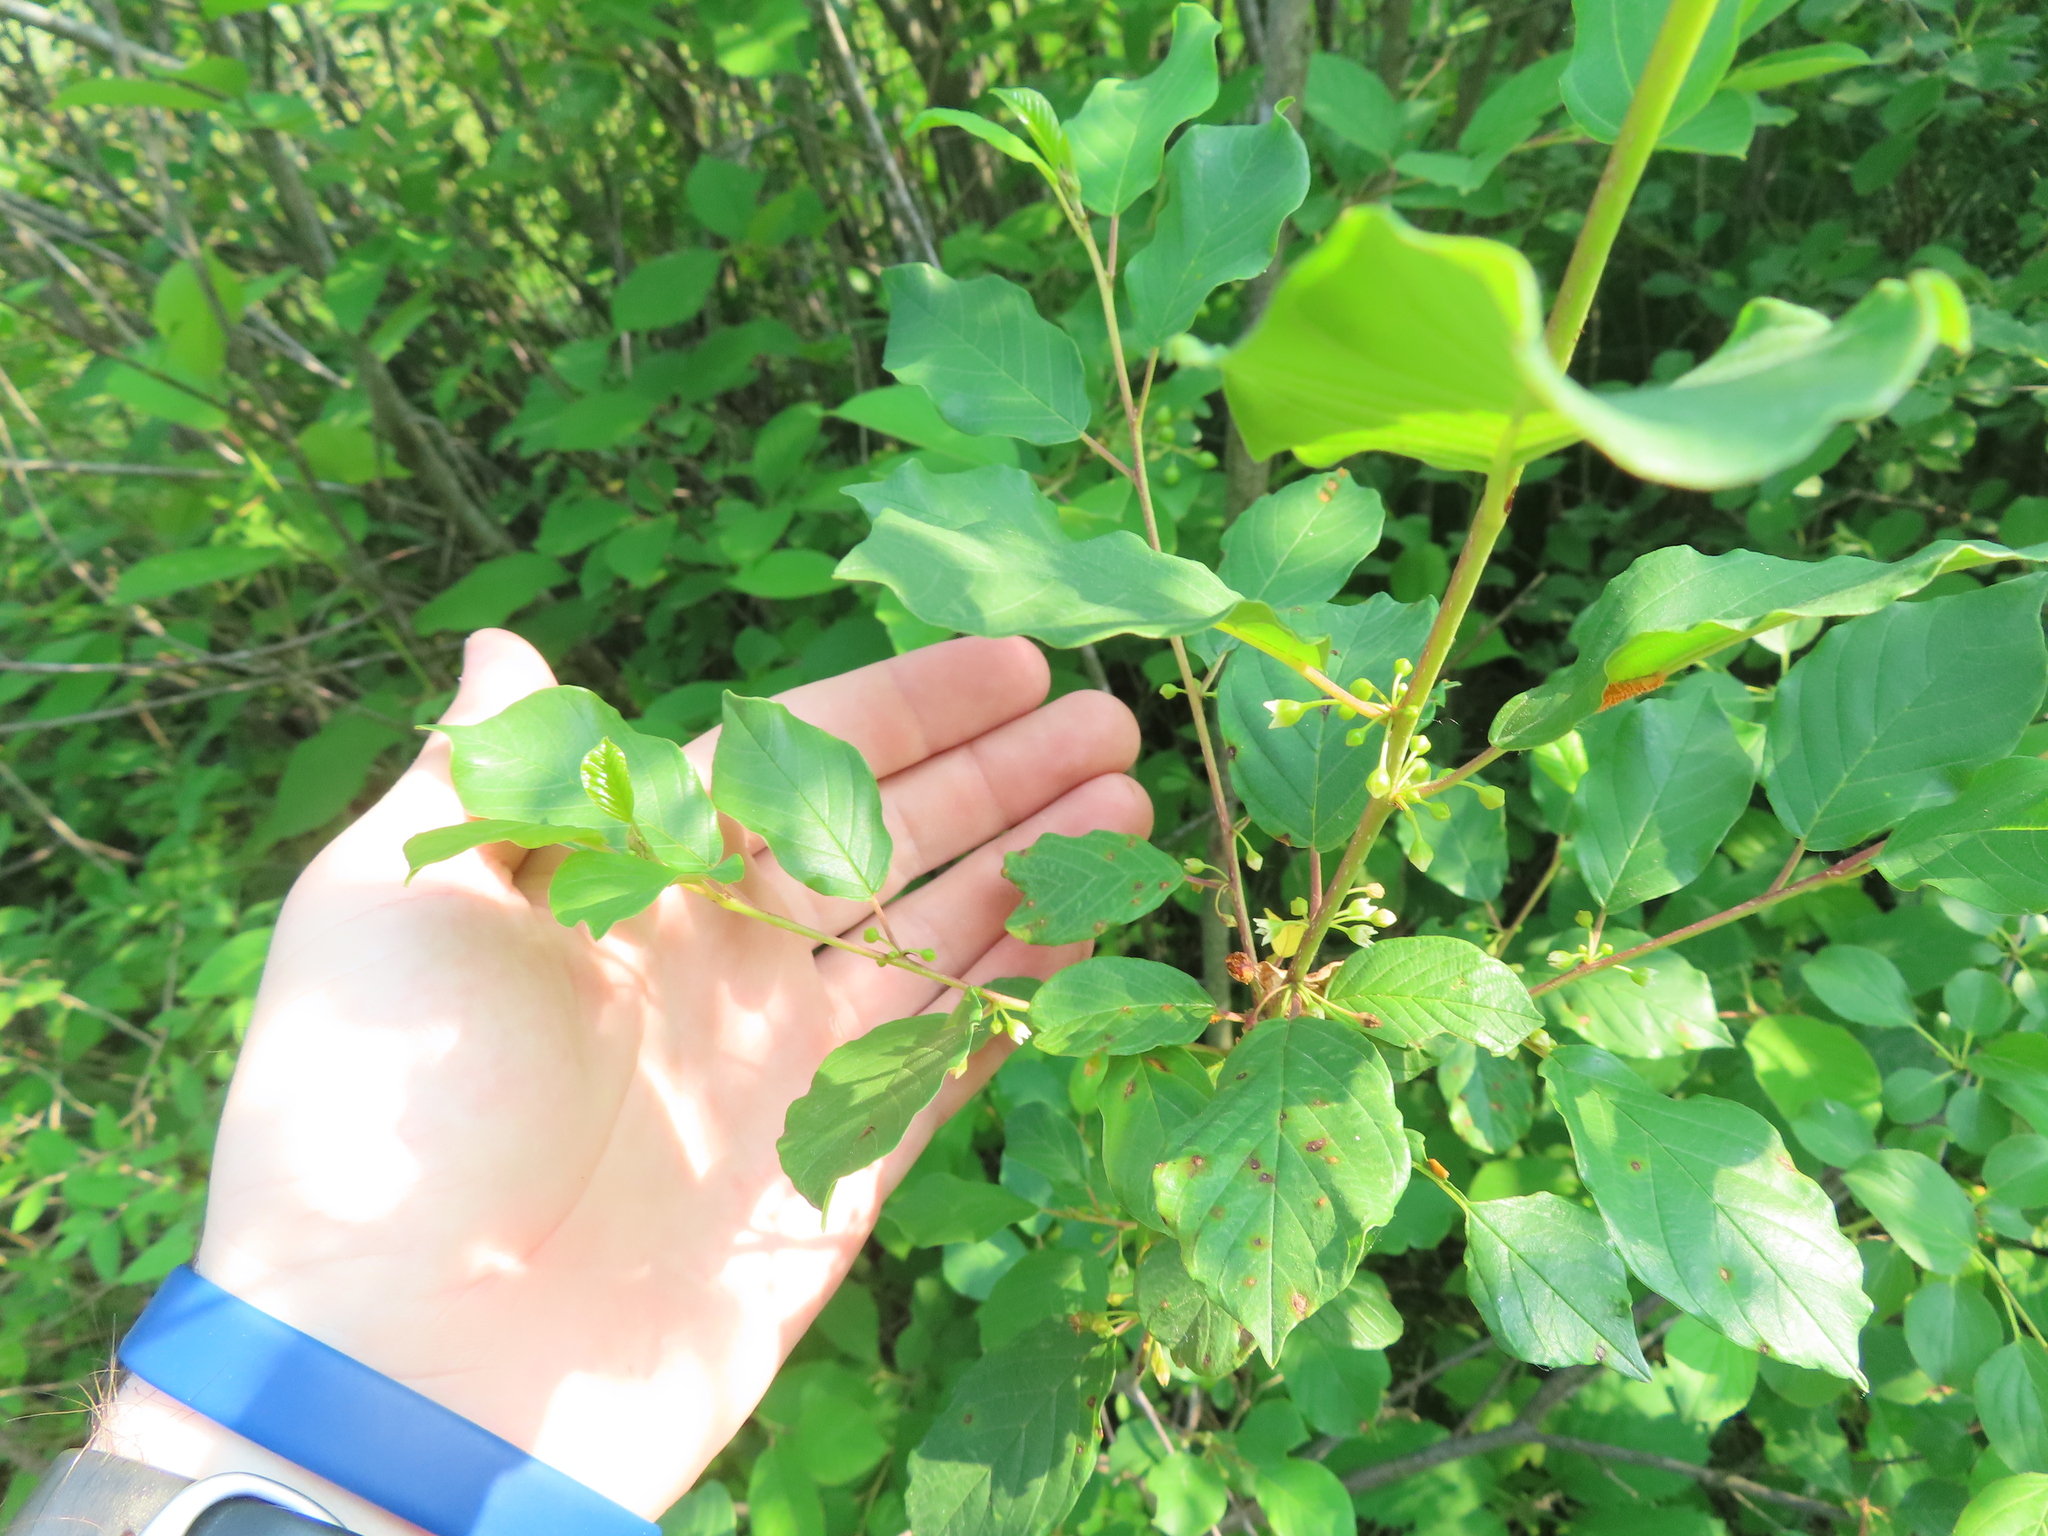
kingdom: Plantae
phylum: Tracheophyta
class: Magnoliopsida
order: Rosales
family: Rhamnaceae
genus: Frangula
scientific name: Frangula alnus
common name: Alder buckthorn
